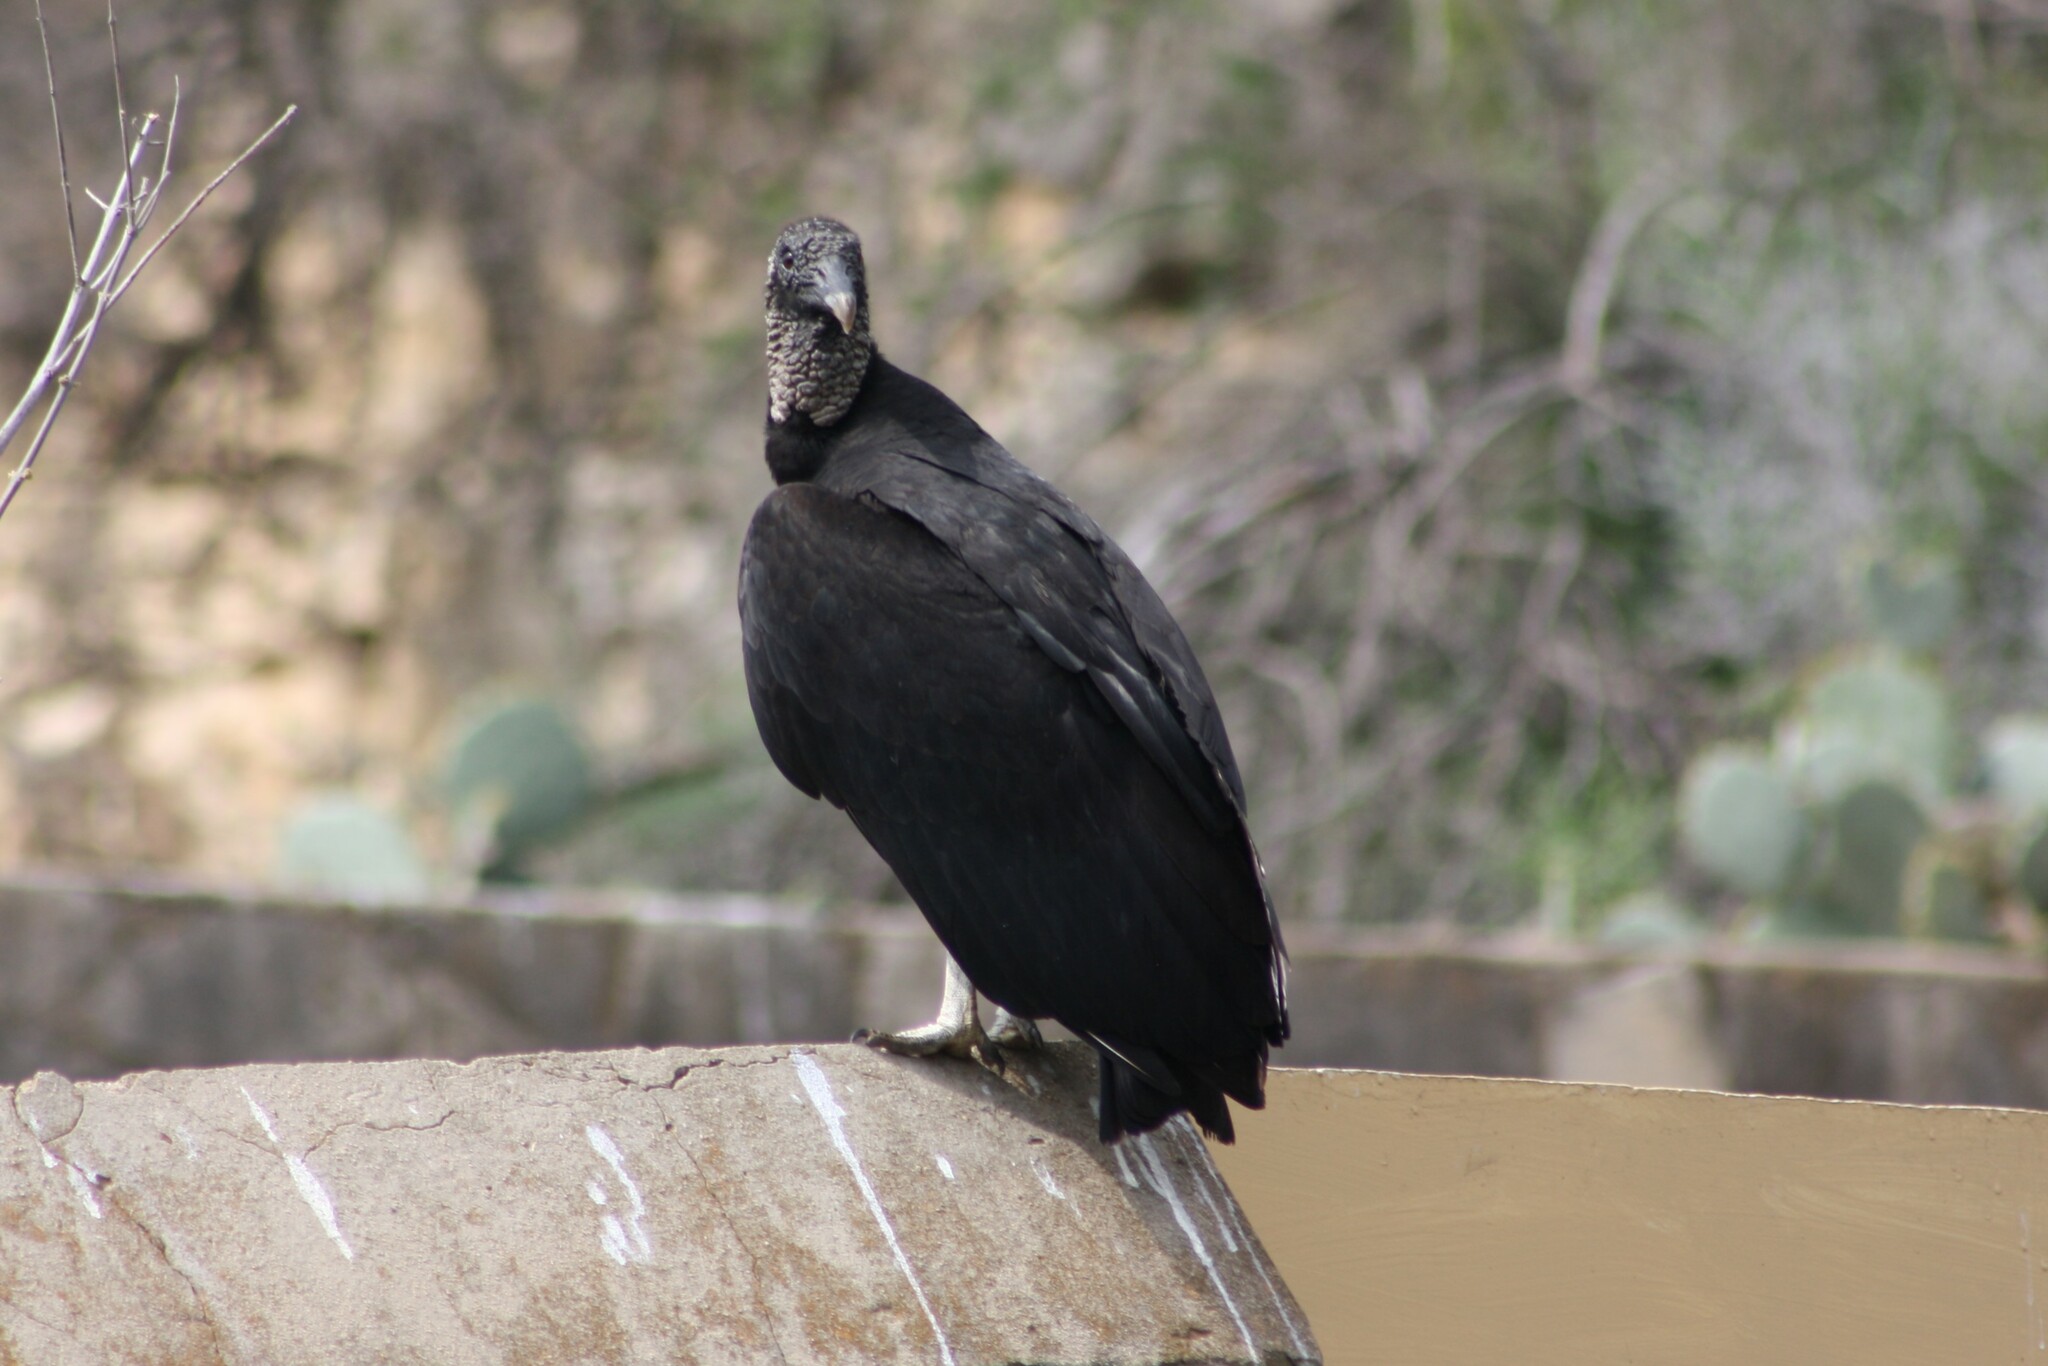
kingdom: Animalia
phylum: Chordata
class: Aves
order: Accipitriformes
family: Cathartidae
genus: Coragyps
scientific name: Coragyps atratus
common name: Black vulture
